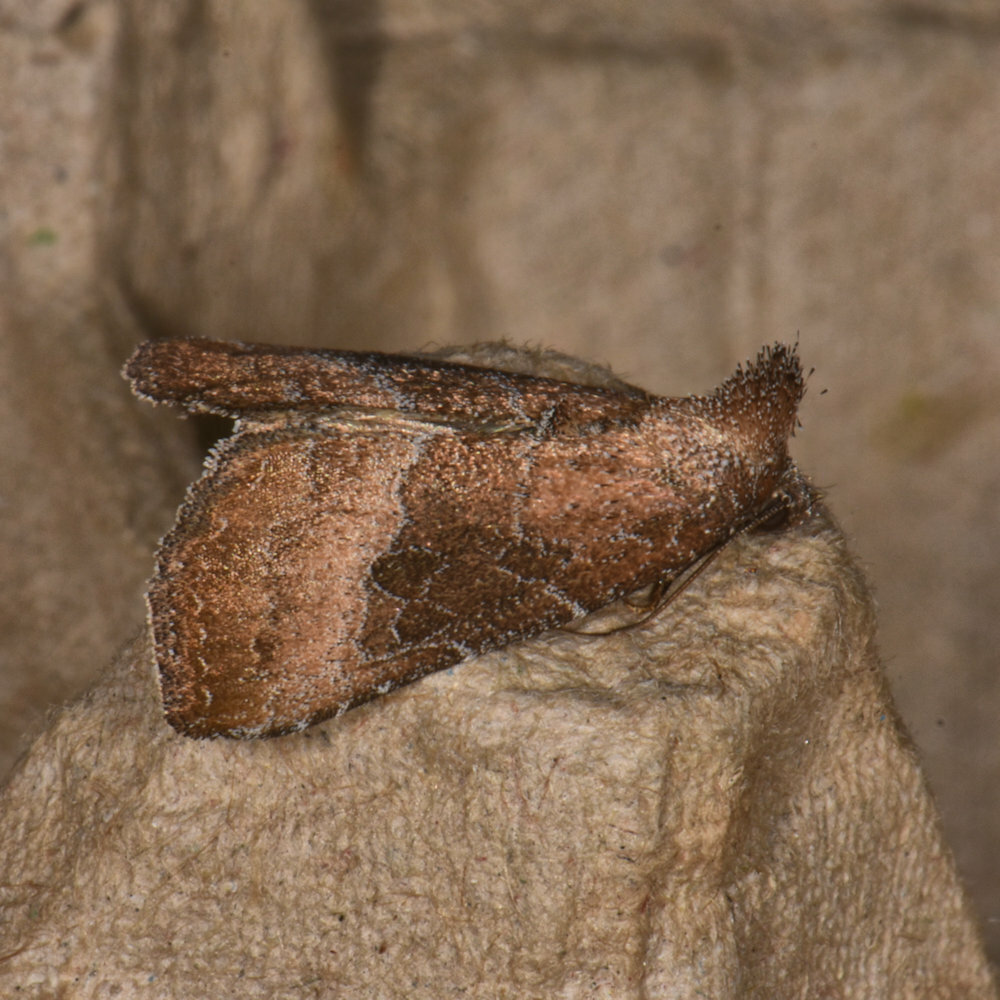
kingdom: Animalia
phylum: Arthropoda
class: Insecta
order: Lepidoptera
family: Noctuidae
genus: Ogdoconta
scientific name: Ogdoconta cinereola
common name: Common pinkband
